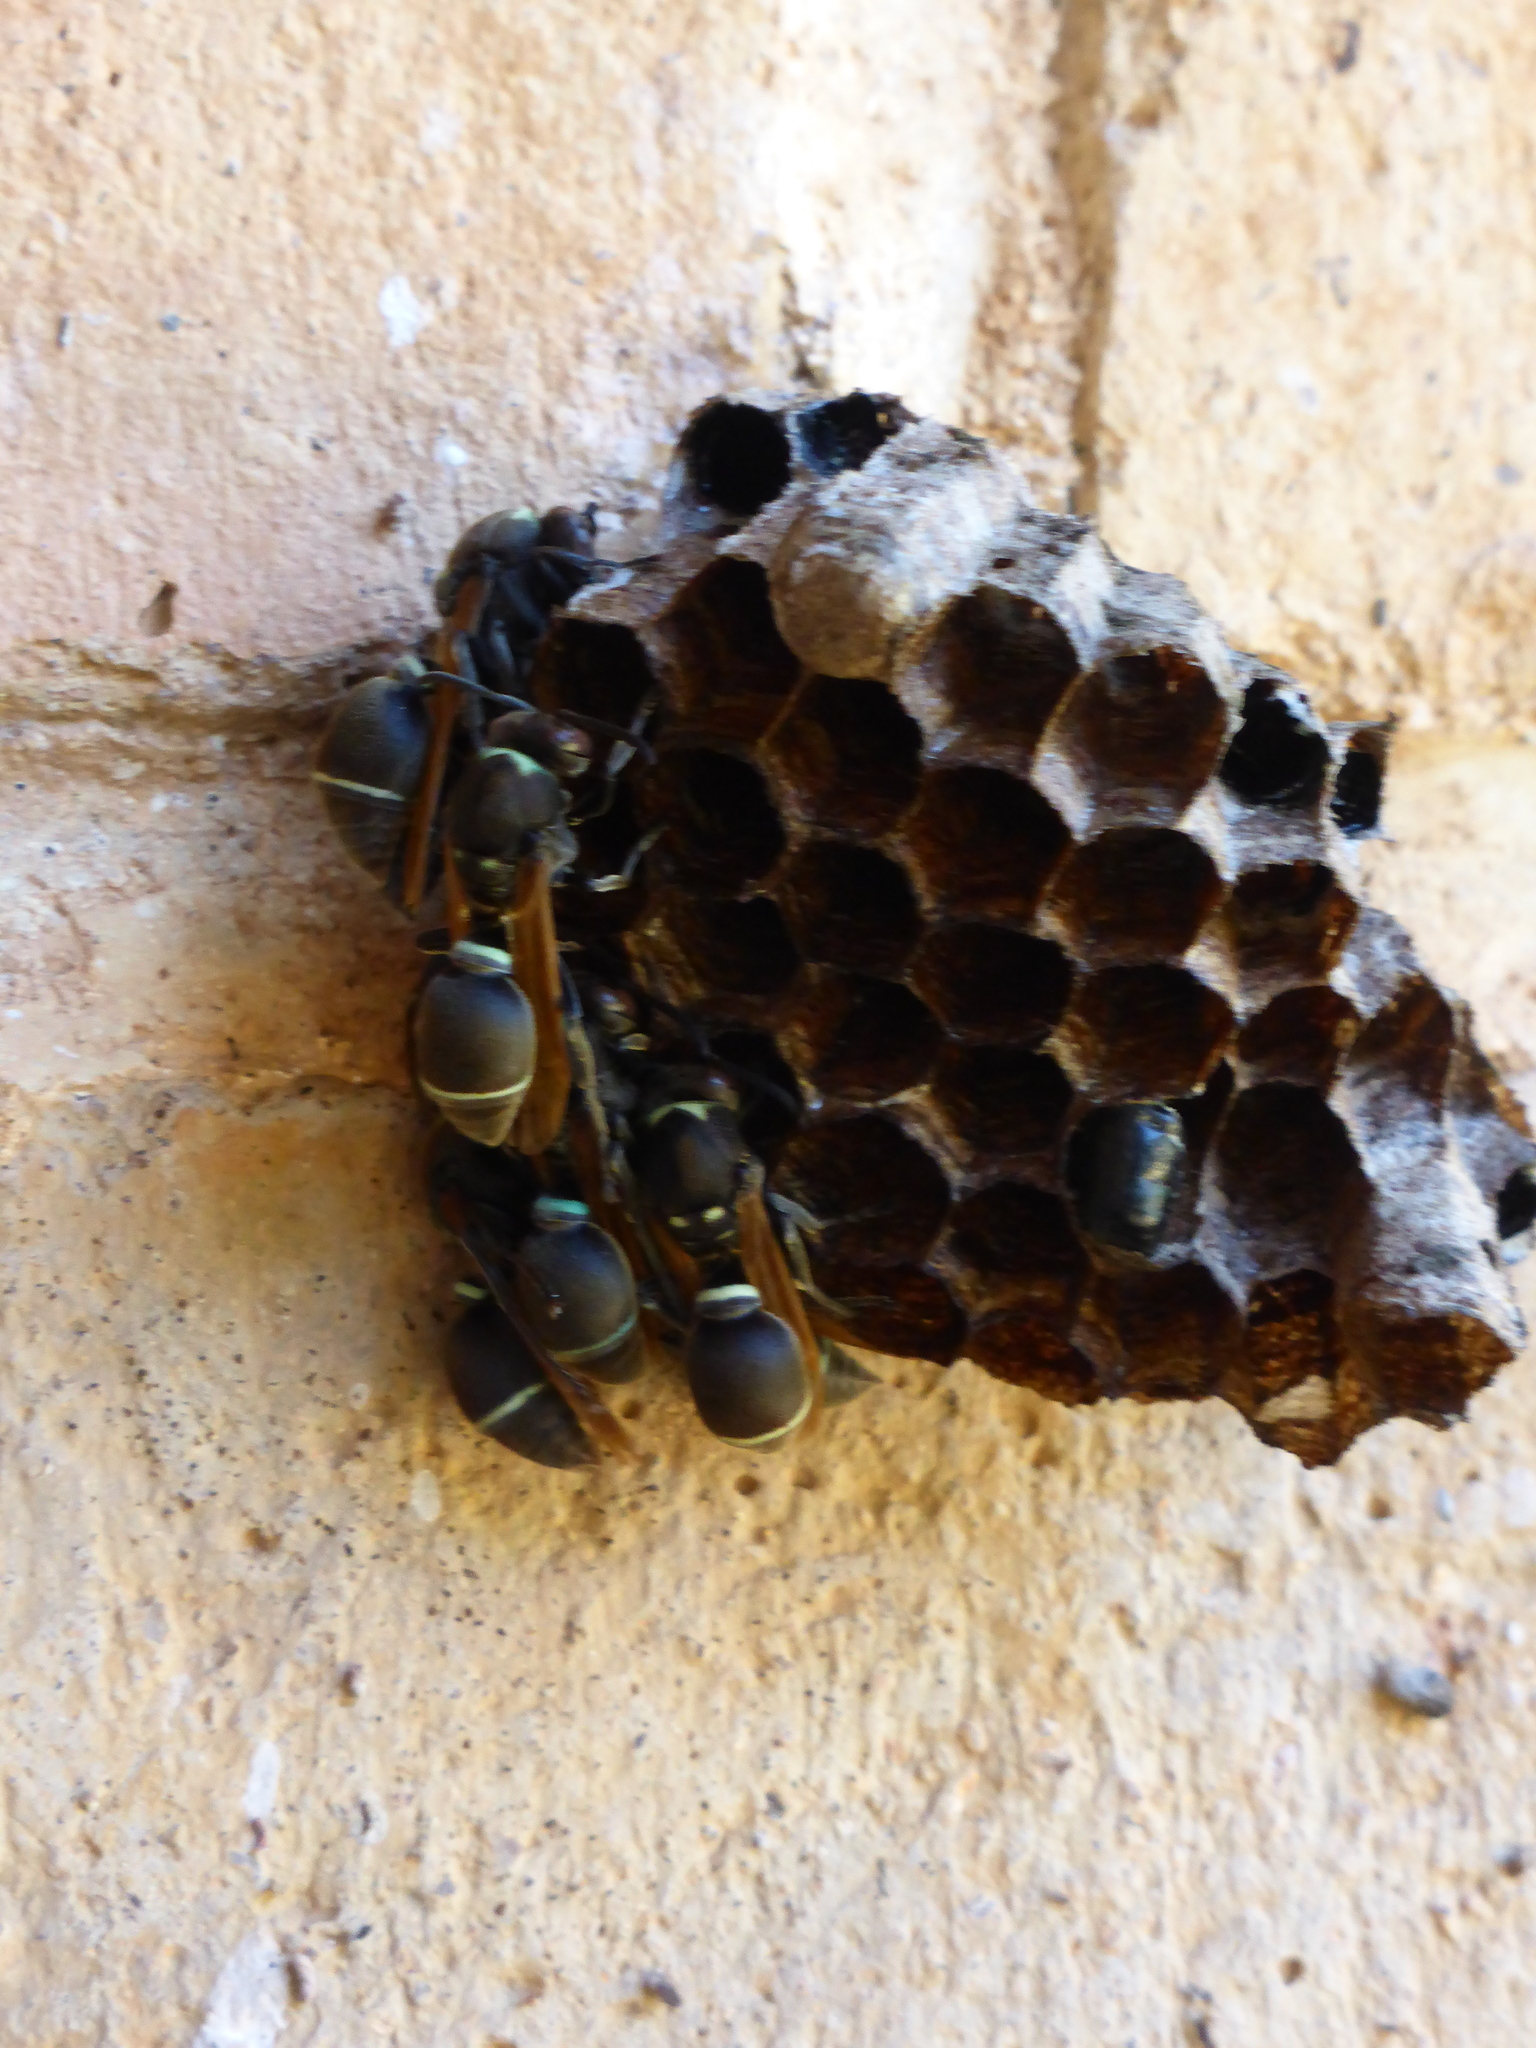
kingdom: Animalia
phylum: Arthropoda
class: Insecta
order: Hymenoptera
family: Vespidae
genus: Ropalidia
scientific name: Ropalidia merina
